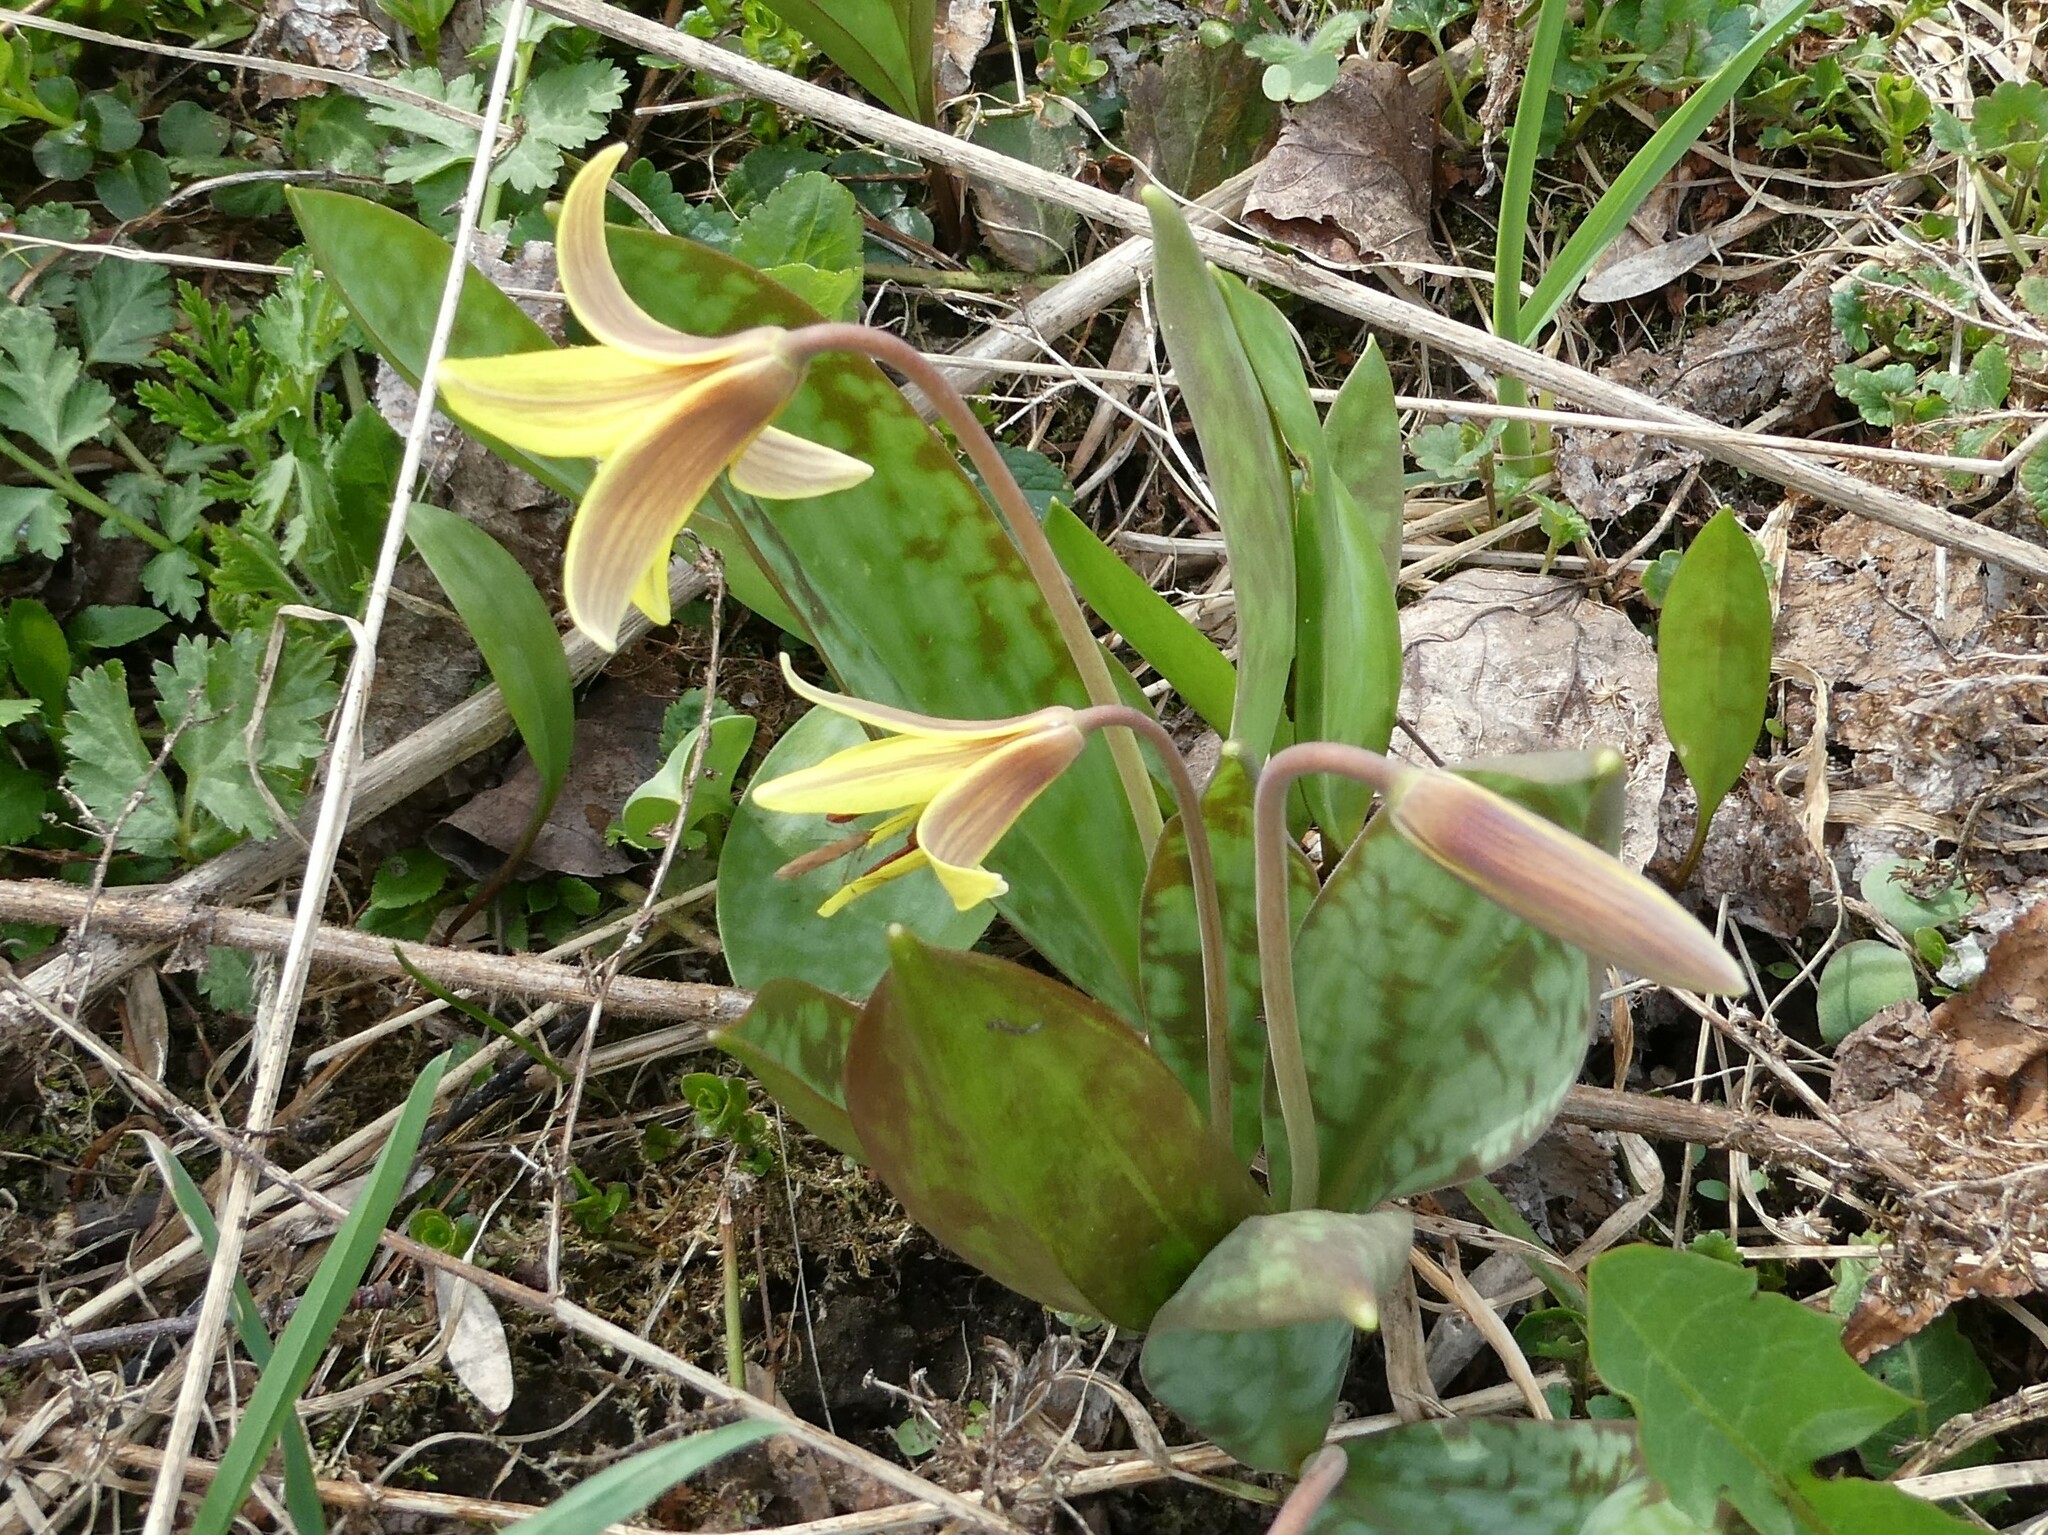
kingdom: Plantae
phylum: Tracheophyta
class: Liliopsida
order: Liliales
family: Liliaceae
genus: Erythronium
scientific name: Erythronium americanum
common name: Yellow adder's-tongue
